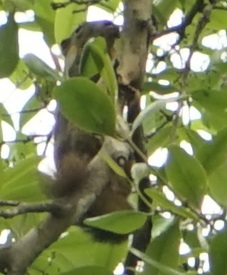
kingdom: Animalia
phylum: Chordata
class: Mammalia
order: Rodentia
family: Sciuridae
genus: Callosciurus
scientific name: Callosciurus notatus
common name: Plantain squirrel
